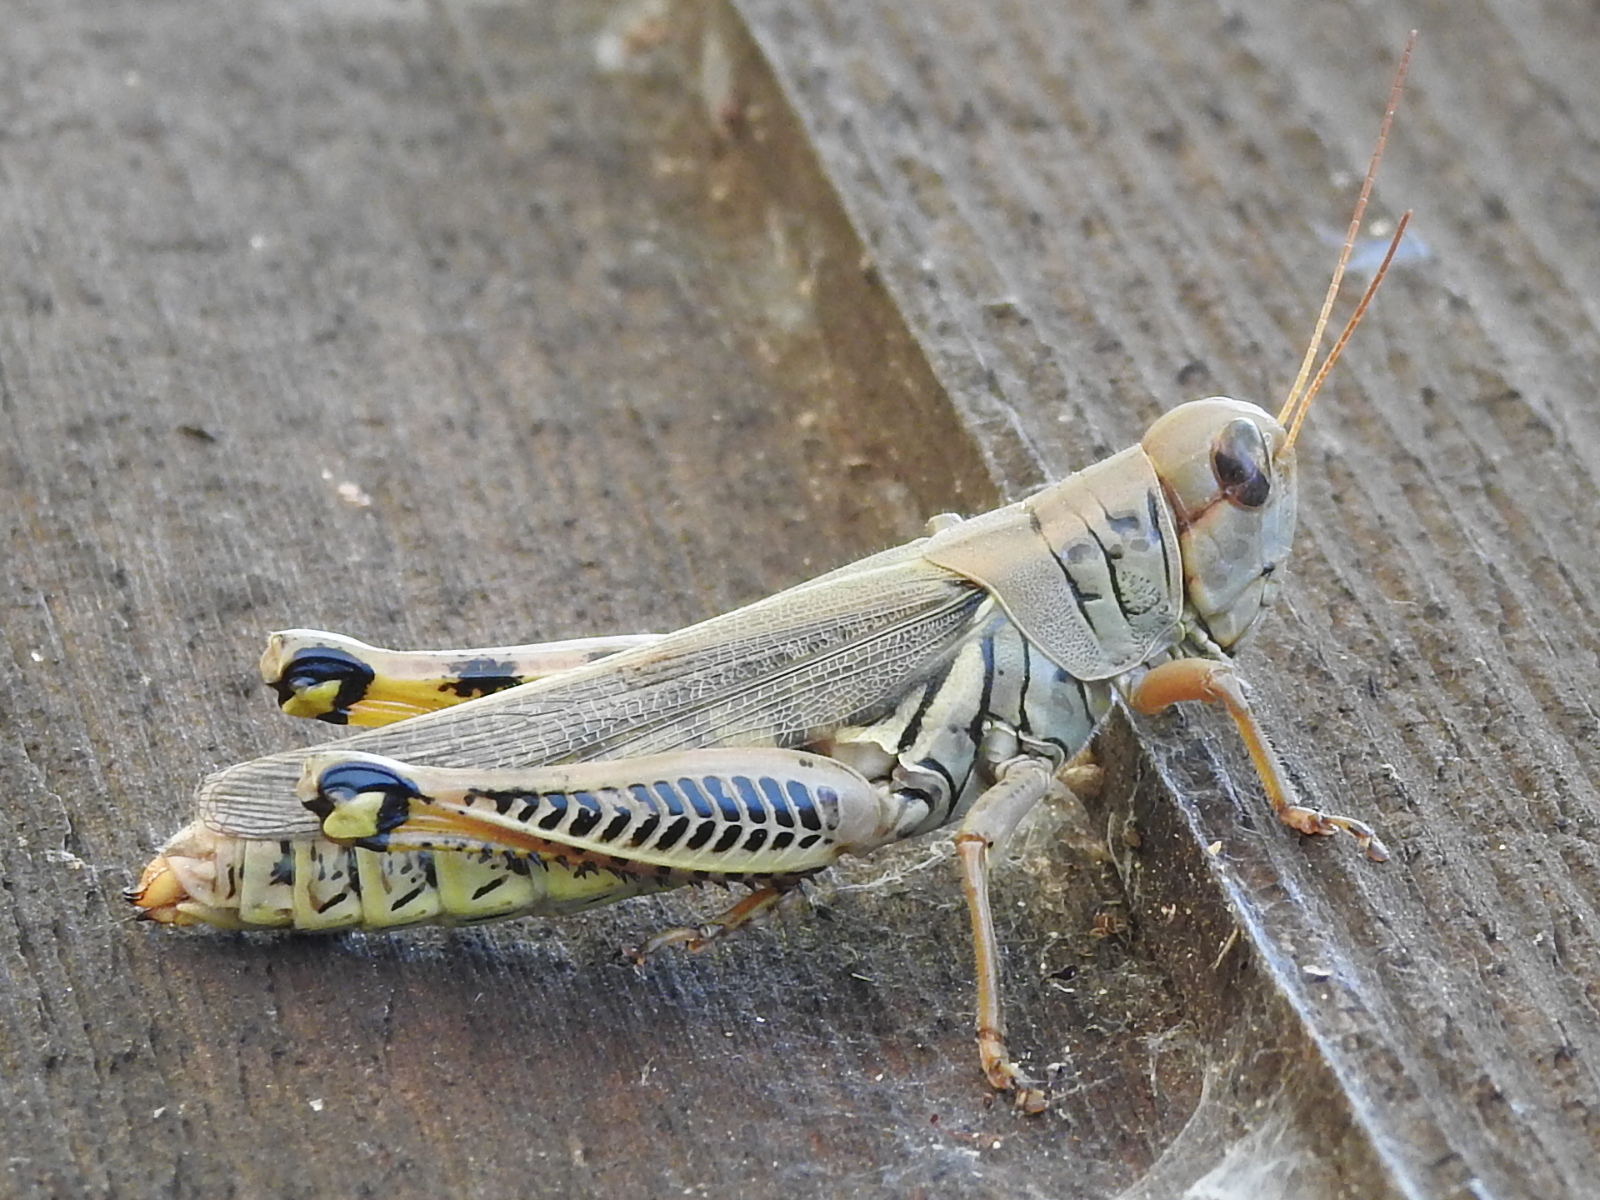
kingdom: Animalia
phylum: Arthropoda
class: Insecta
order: Orthoptera
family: Acrididae
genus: Melanoplus
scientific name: Melanoplus differentialis
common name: Differential grasshopper
